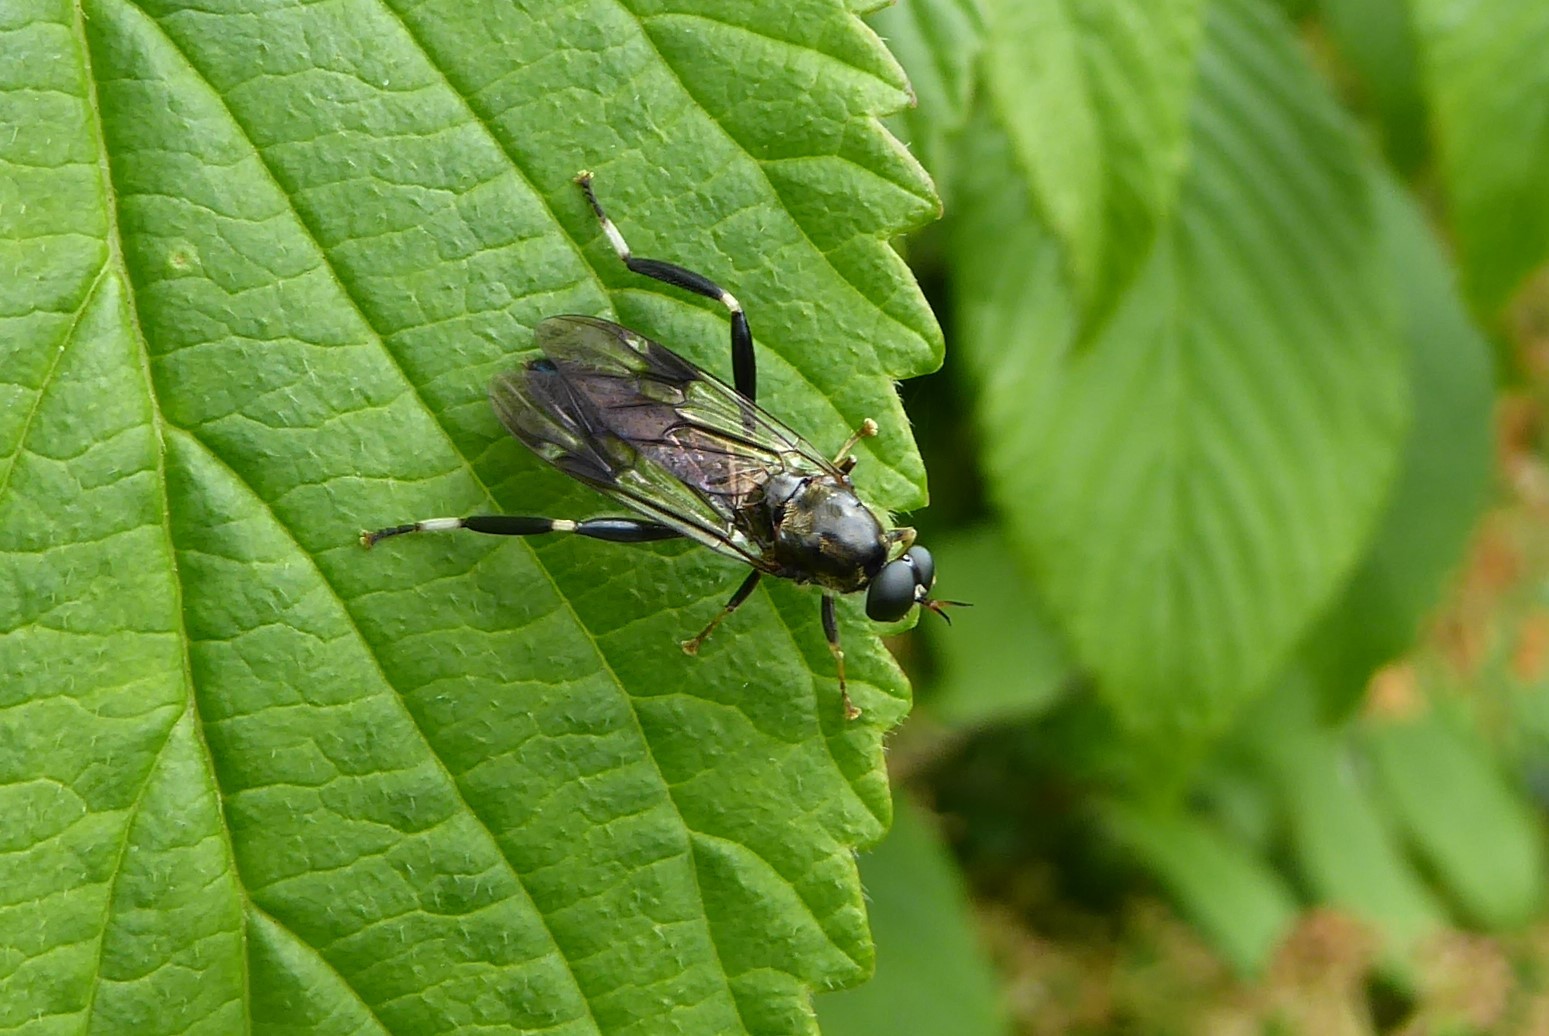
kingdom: Animalia
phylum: Arthropoda
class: Insecta
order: Diptera
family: Stratiomyidae
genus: Exaireta
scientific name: Exaireta spinigera
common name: Blue soldier fly
